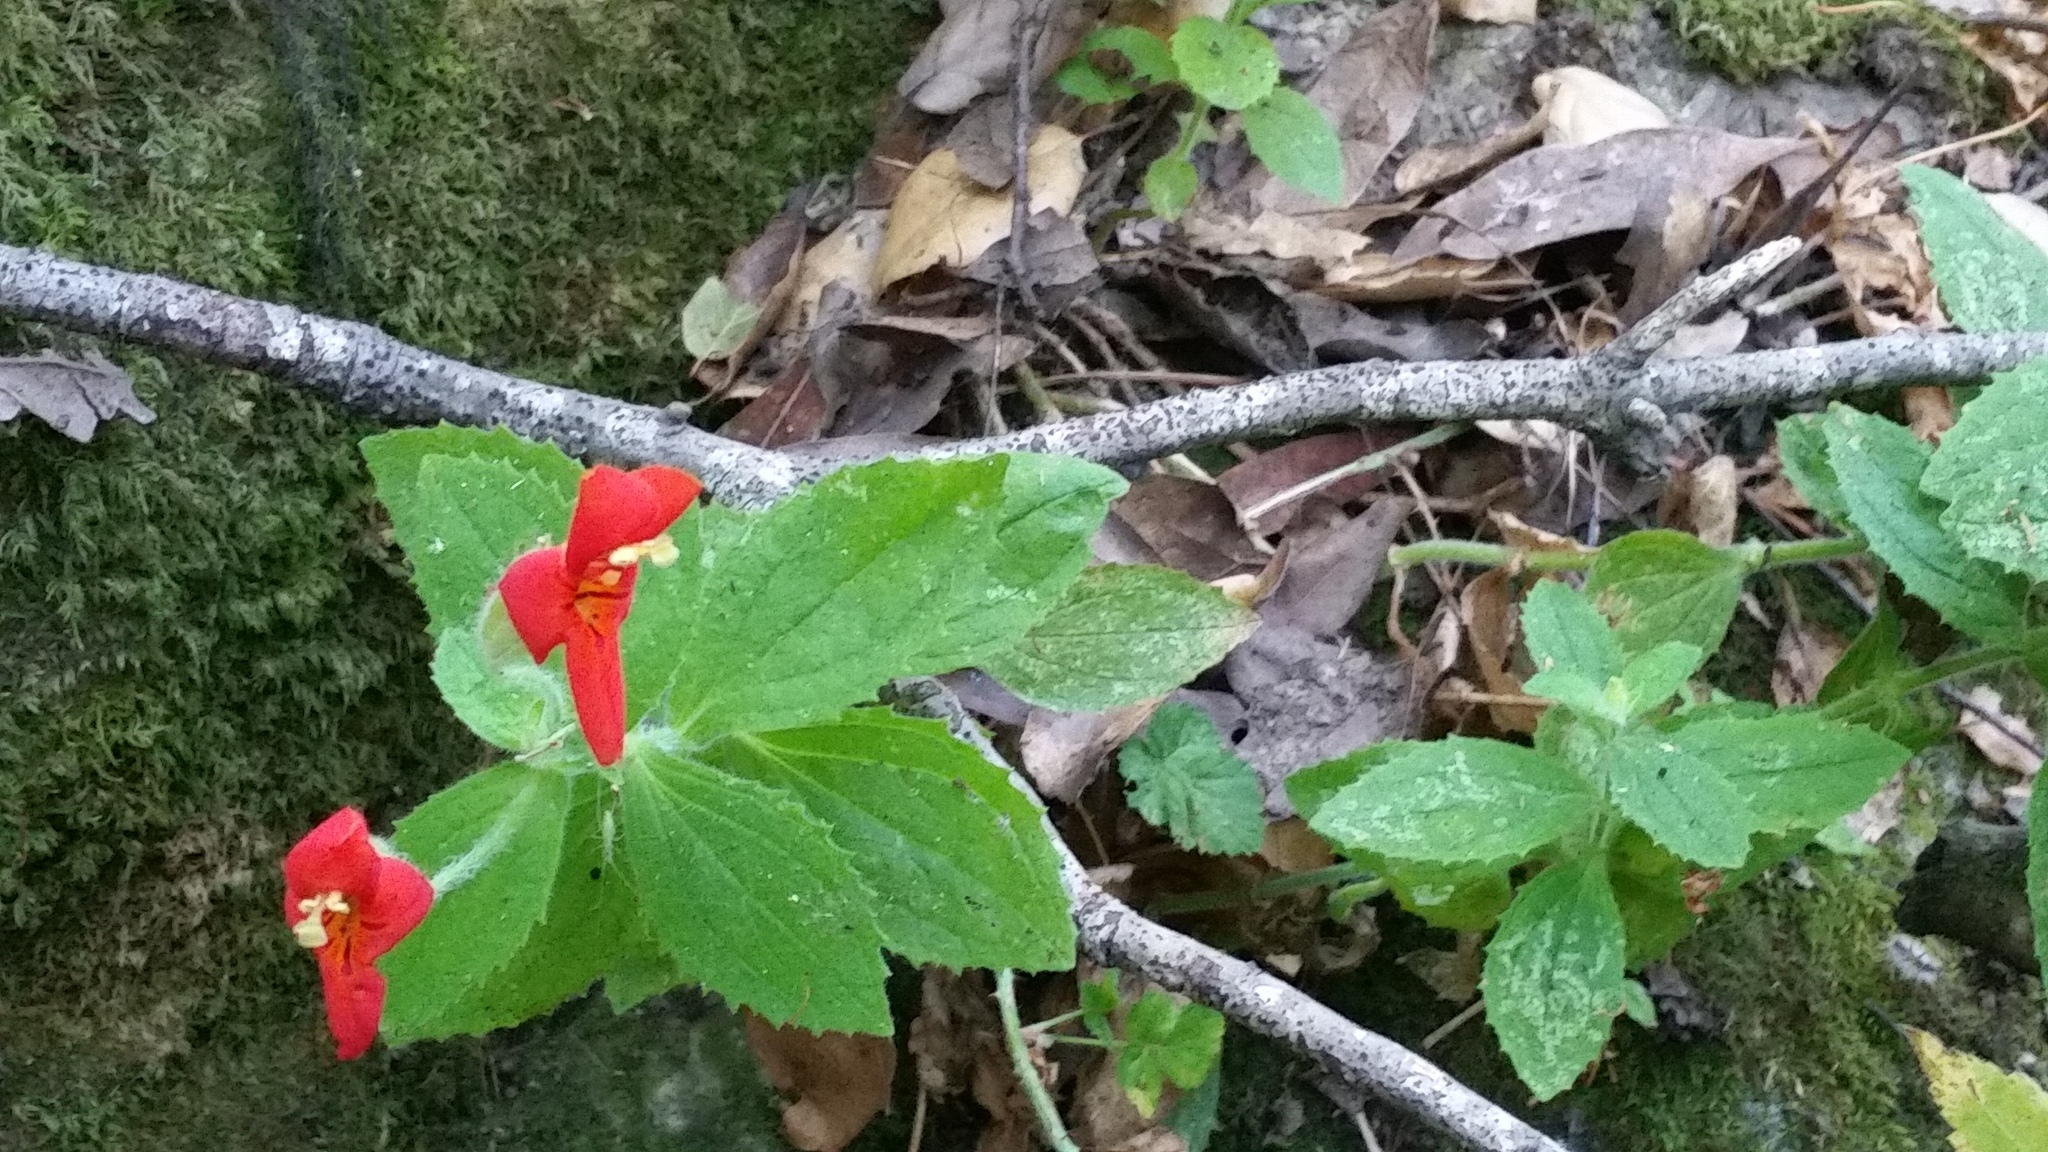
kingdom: Plantae
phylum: Tracheophyta
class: Magnoliopsida
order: Lamiales
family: Phrymaceae
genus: Erythranthe
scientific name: Erythranthe cardinalis
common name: Scarlet monkey-flower
